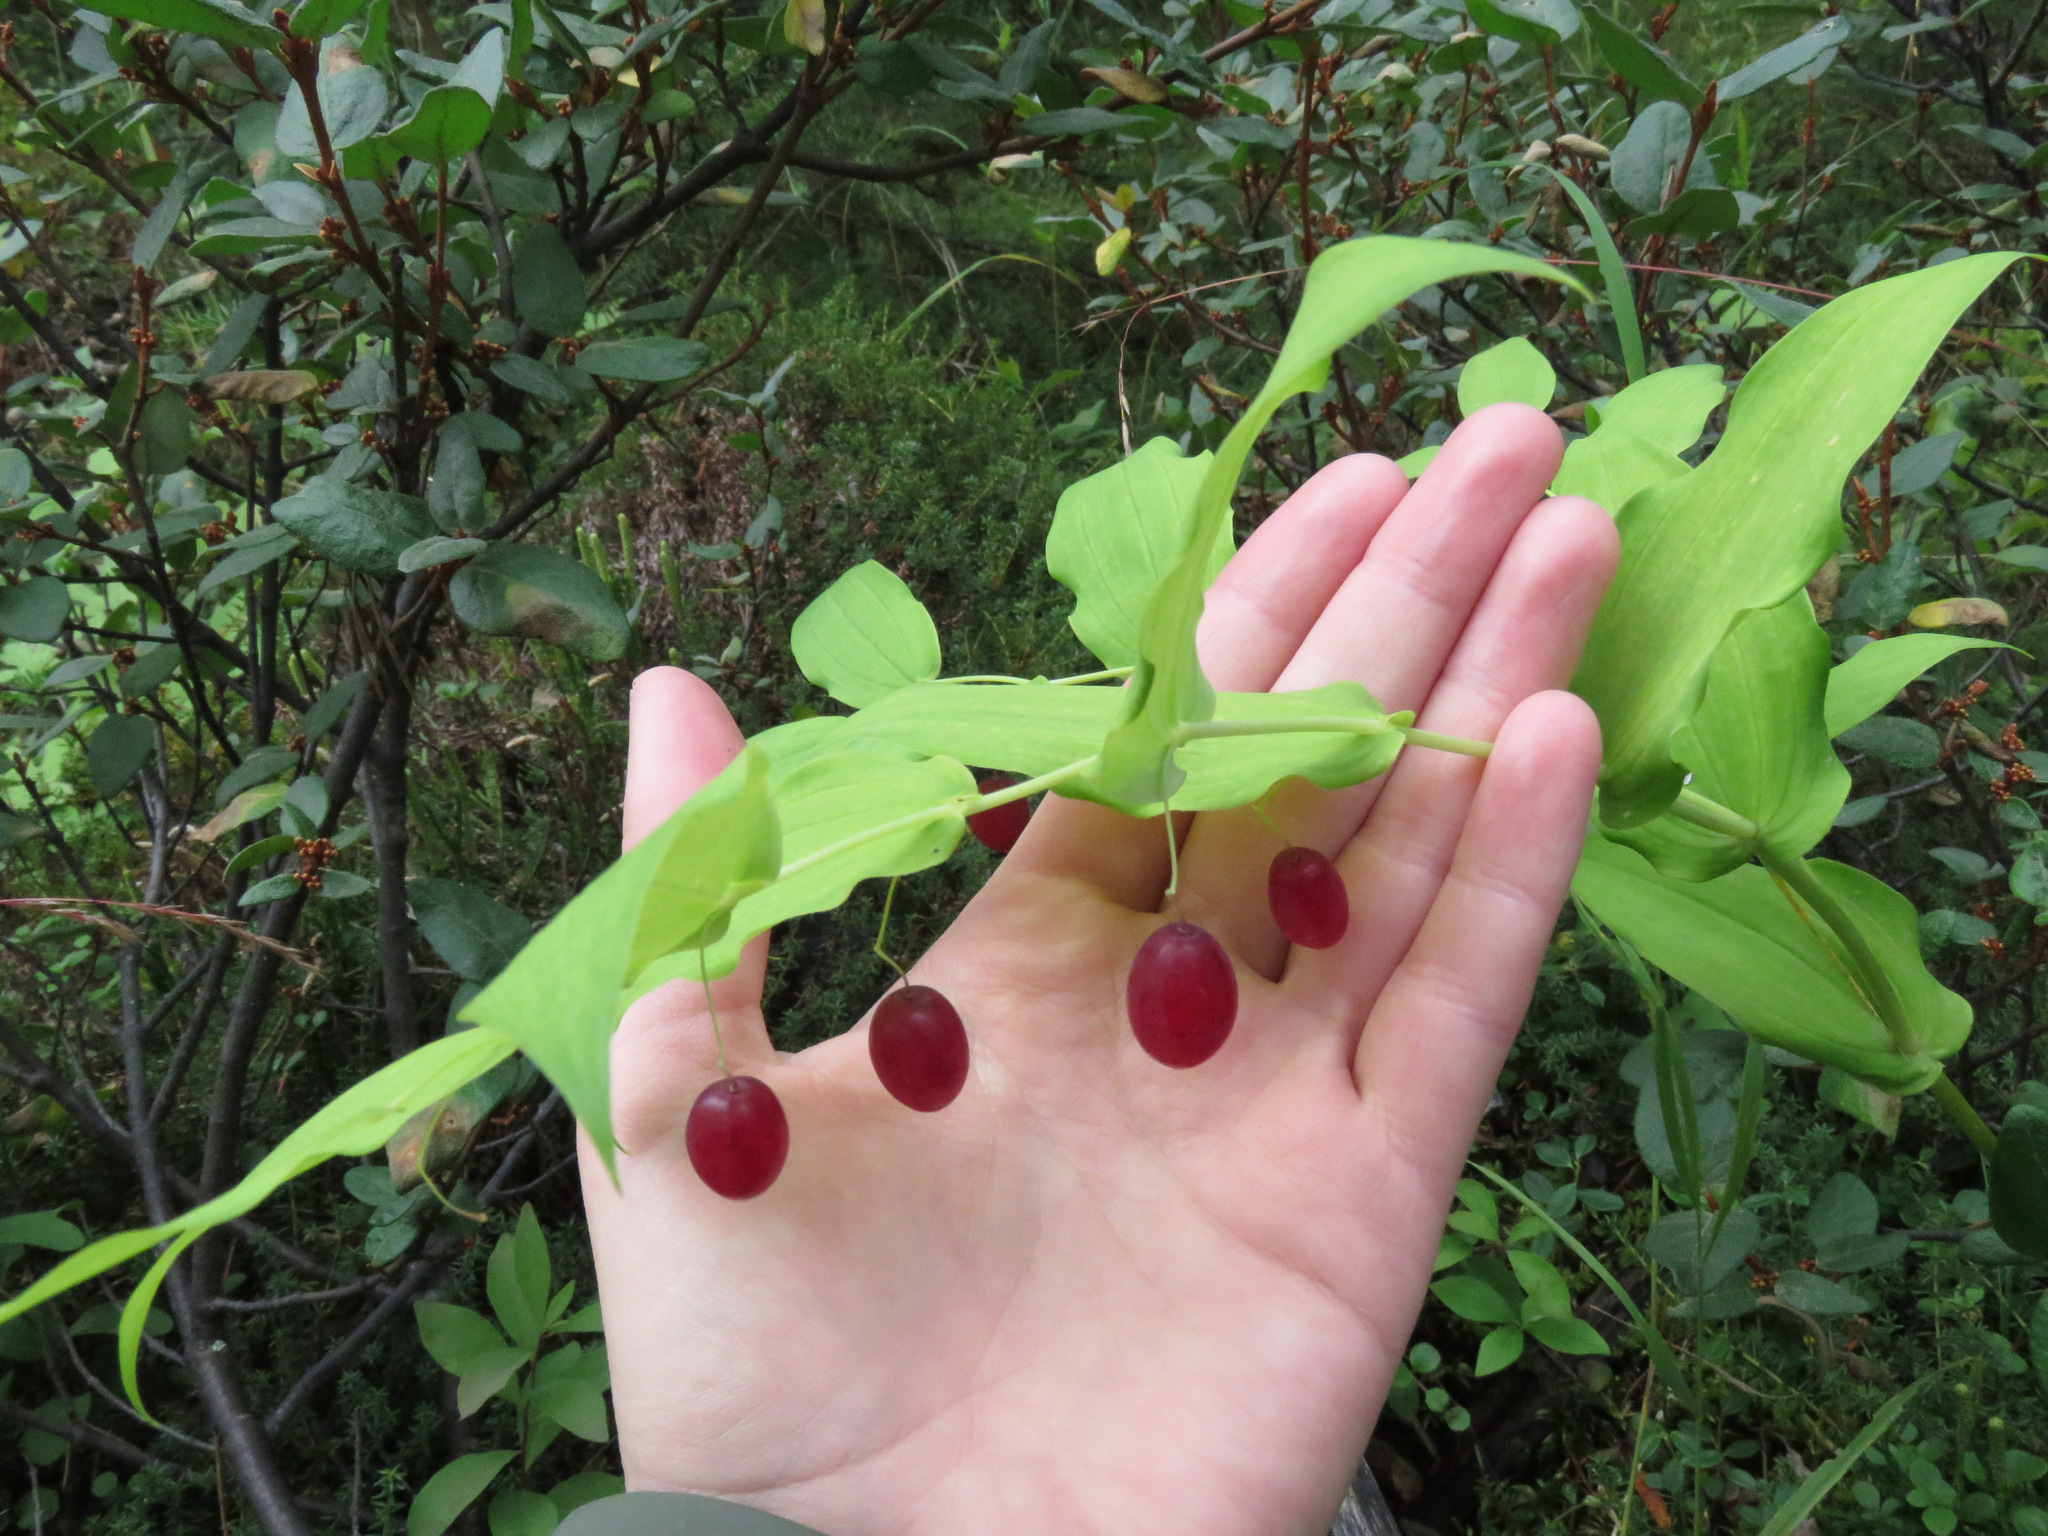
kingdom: Plantae
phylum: Tracheophyta
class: Liliopsida
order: Liliales
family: Liliaceae
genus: Streptopus
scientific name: Streptopus amplexifolius
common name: Clasp twisted stalk
